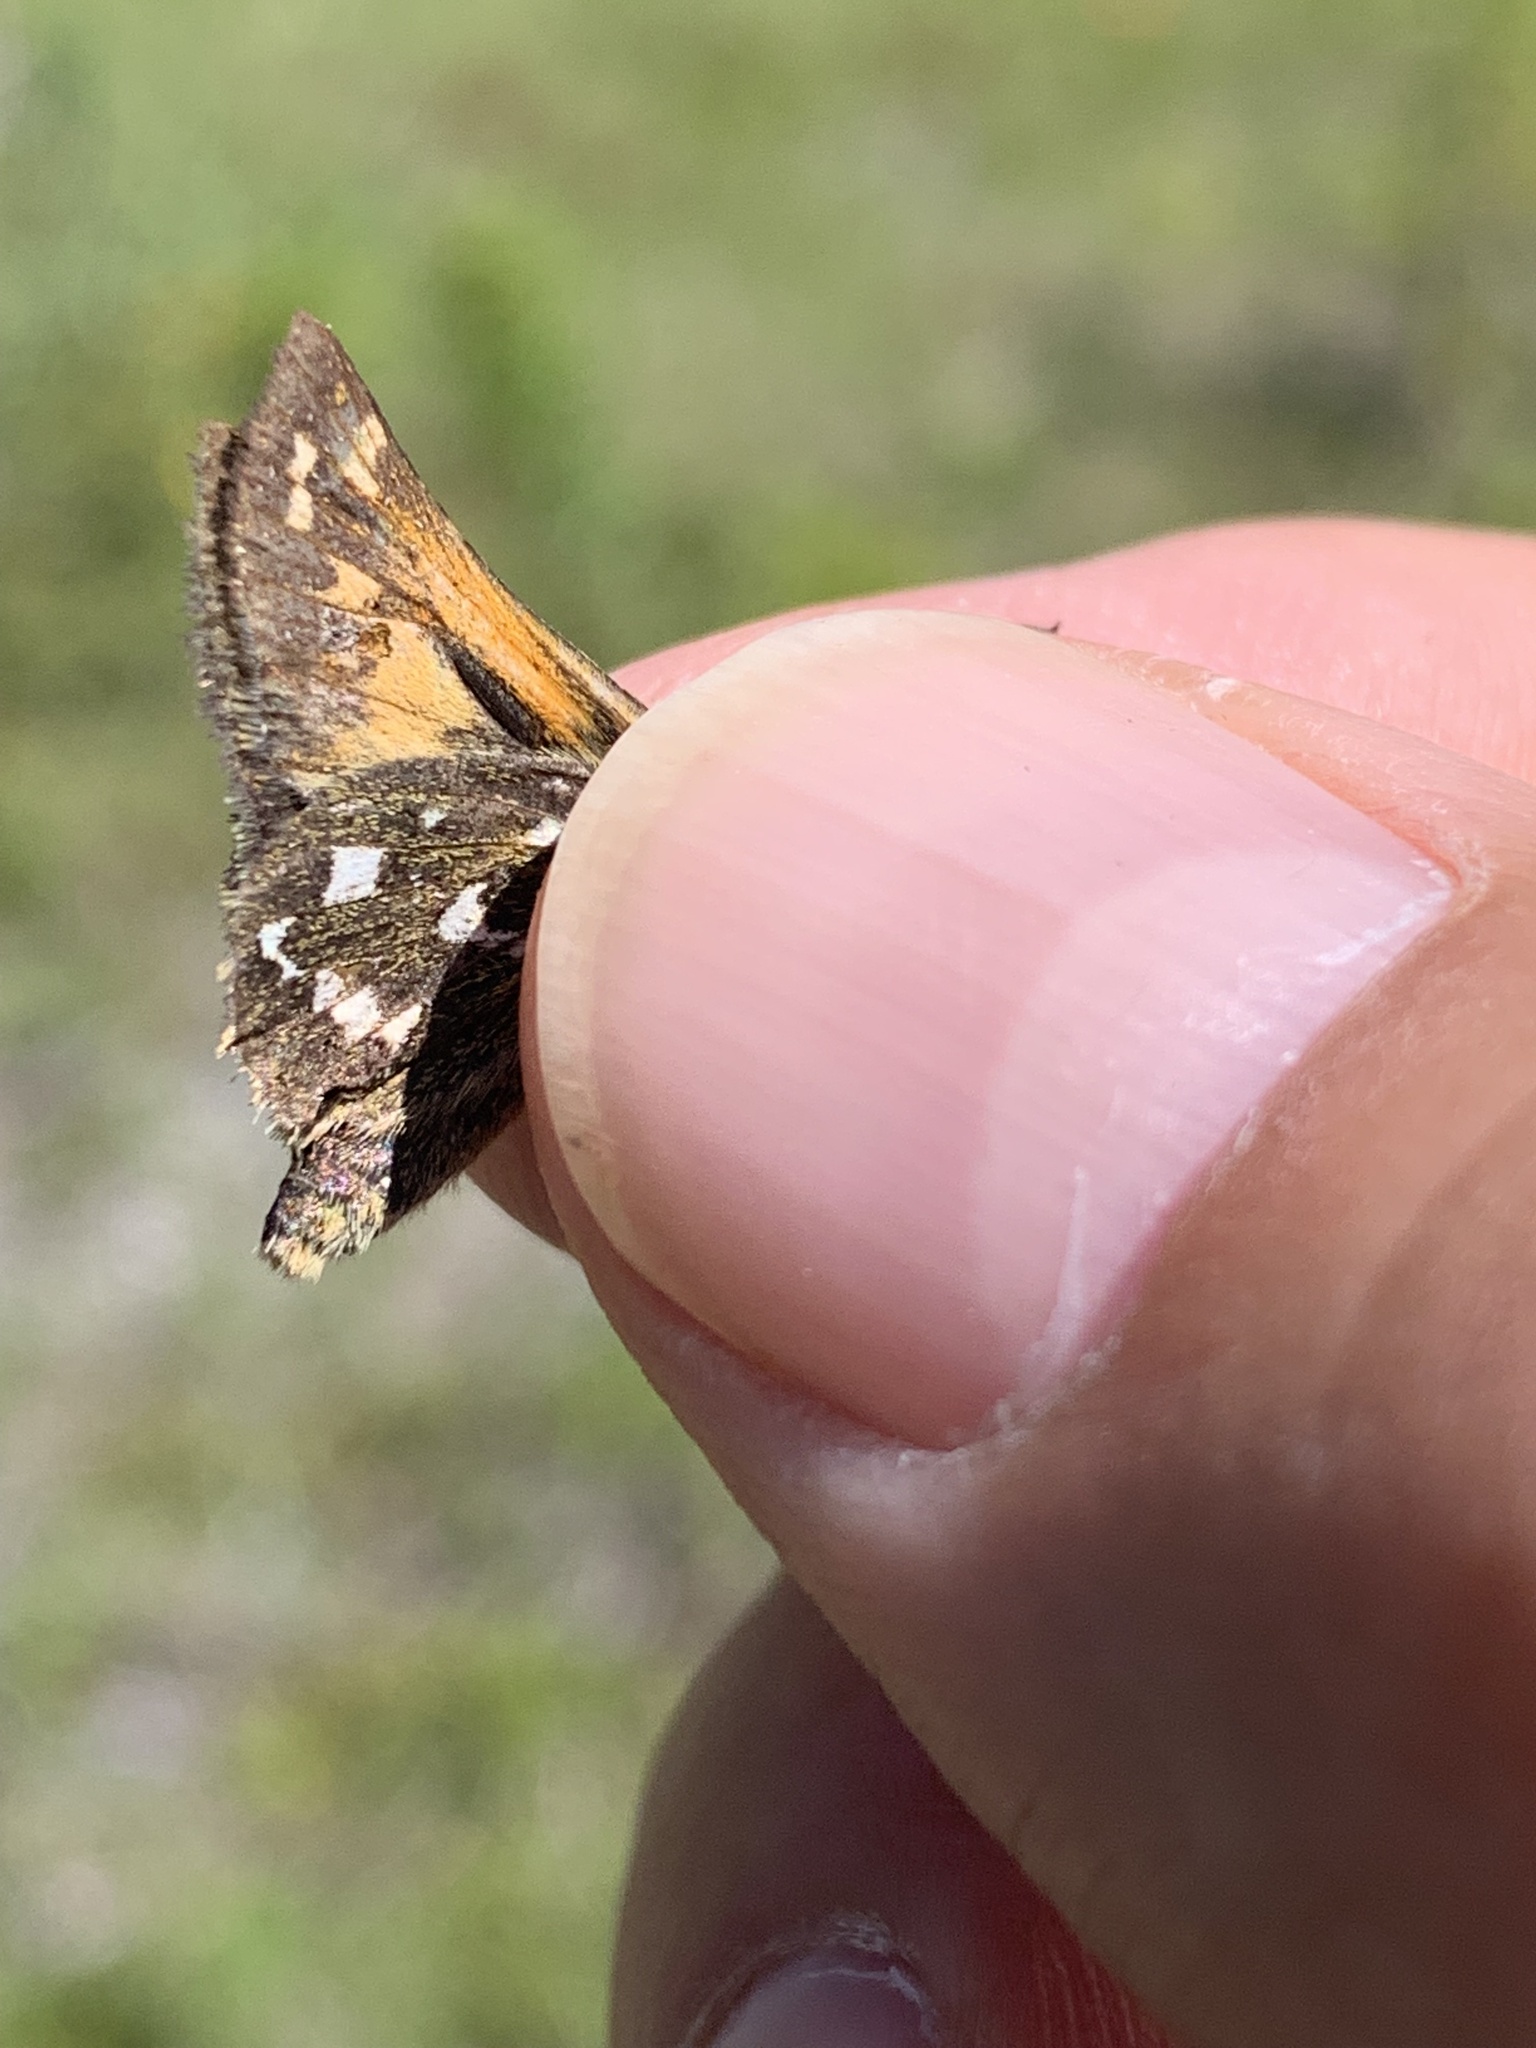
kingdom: Animalia
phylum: Arthropoda
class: Insecta
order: Lepidoptera
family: Hesperiidae
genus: Hesperia
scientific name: Hesperia comma
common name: Common branded skipper
